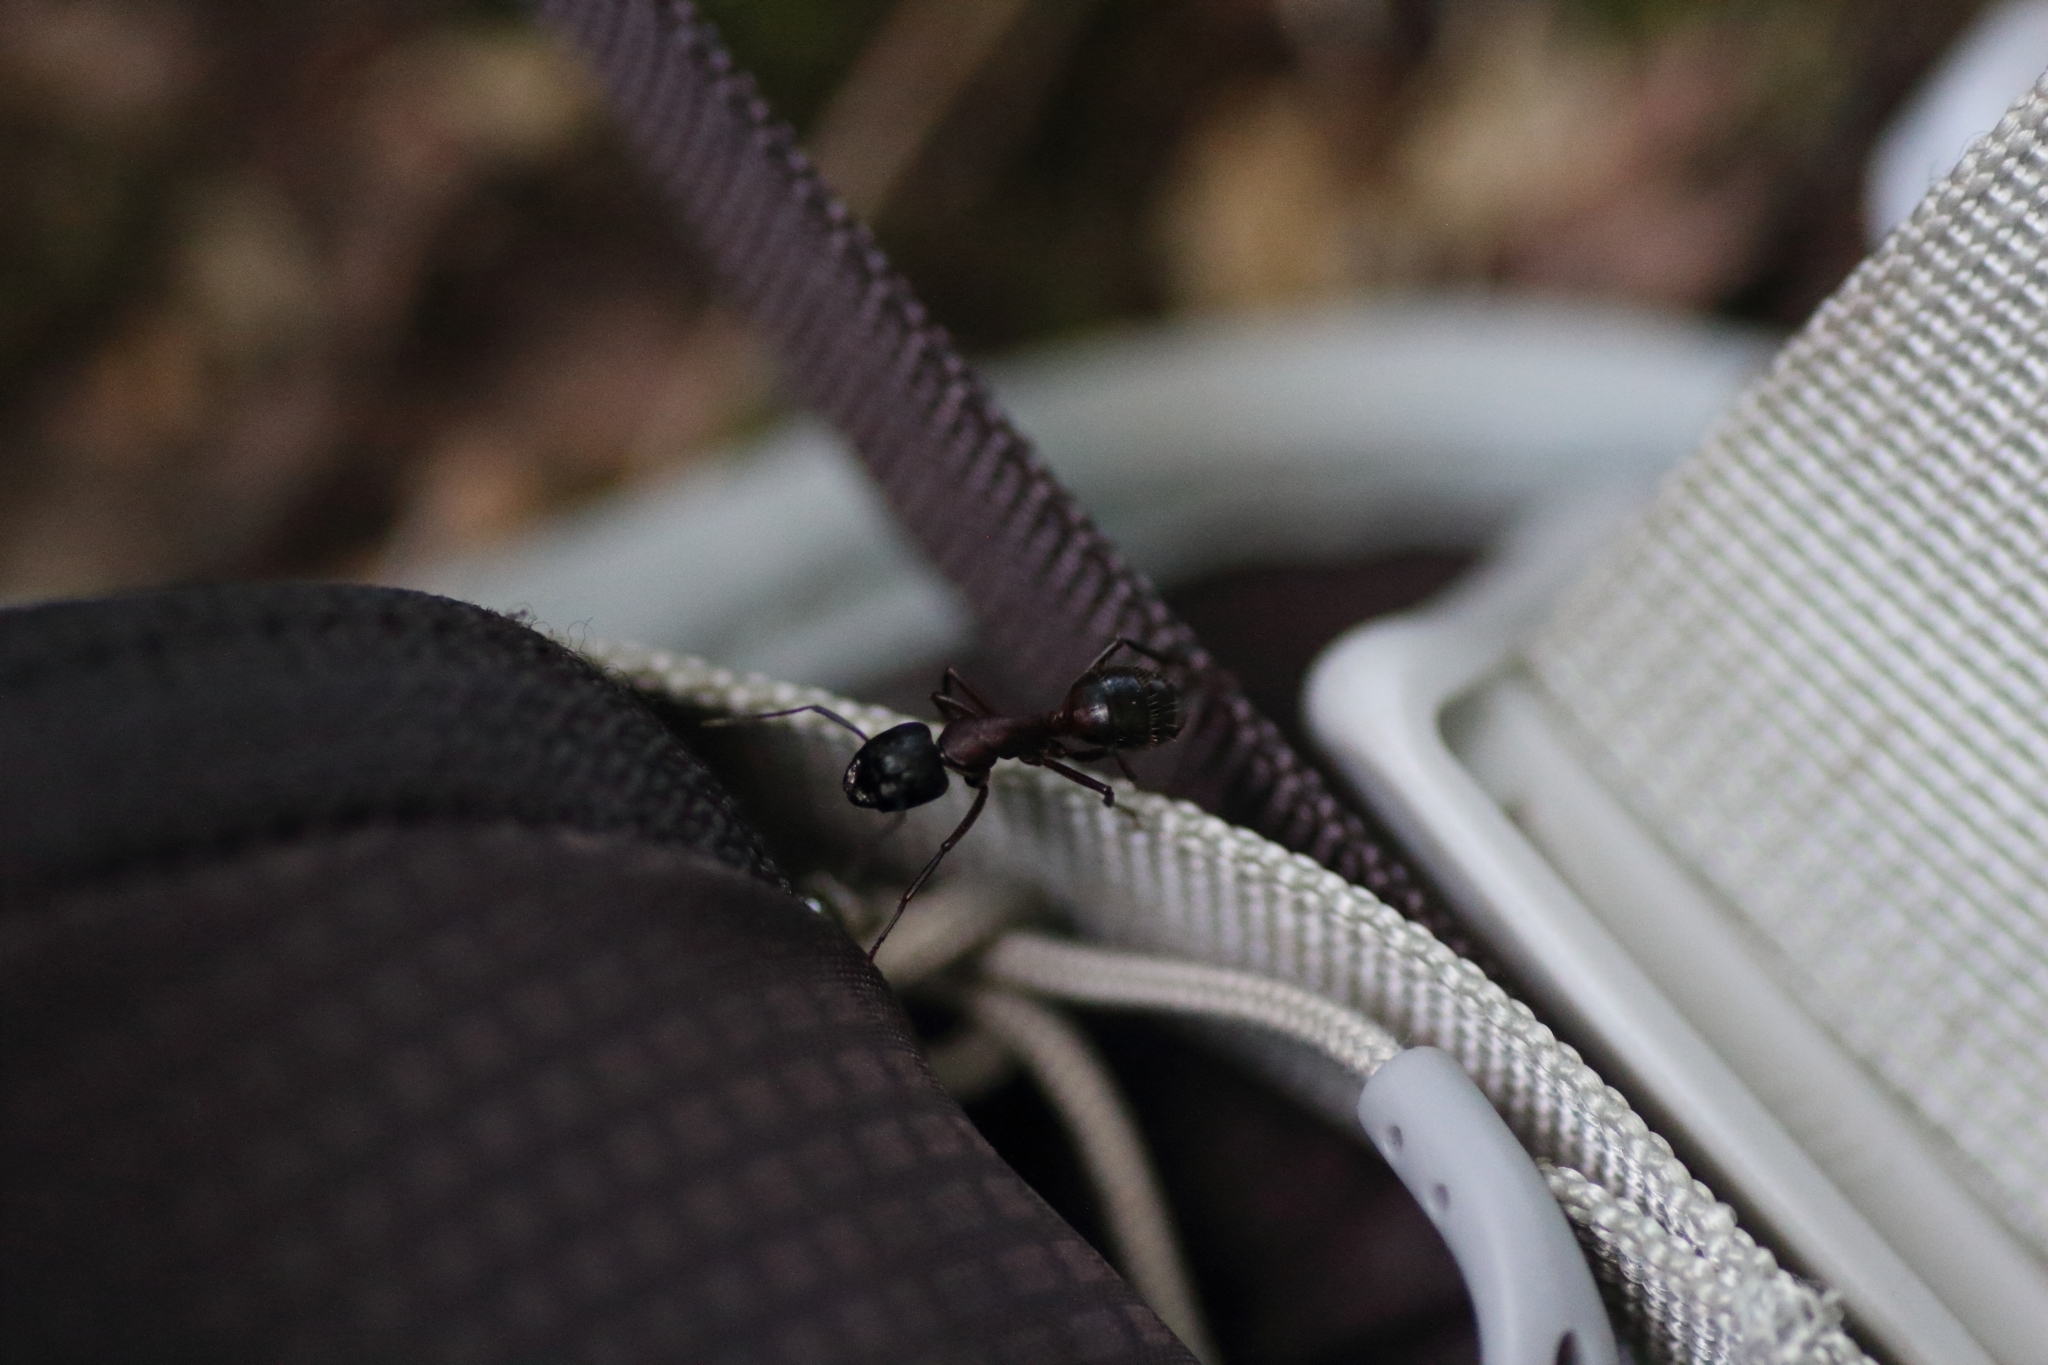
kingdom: Animalia
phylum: Arthropoda
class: Insecta
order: Hymenoptera
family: Formicidae
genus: Camponotus
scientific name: Camponotus ligniperdus
